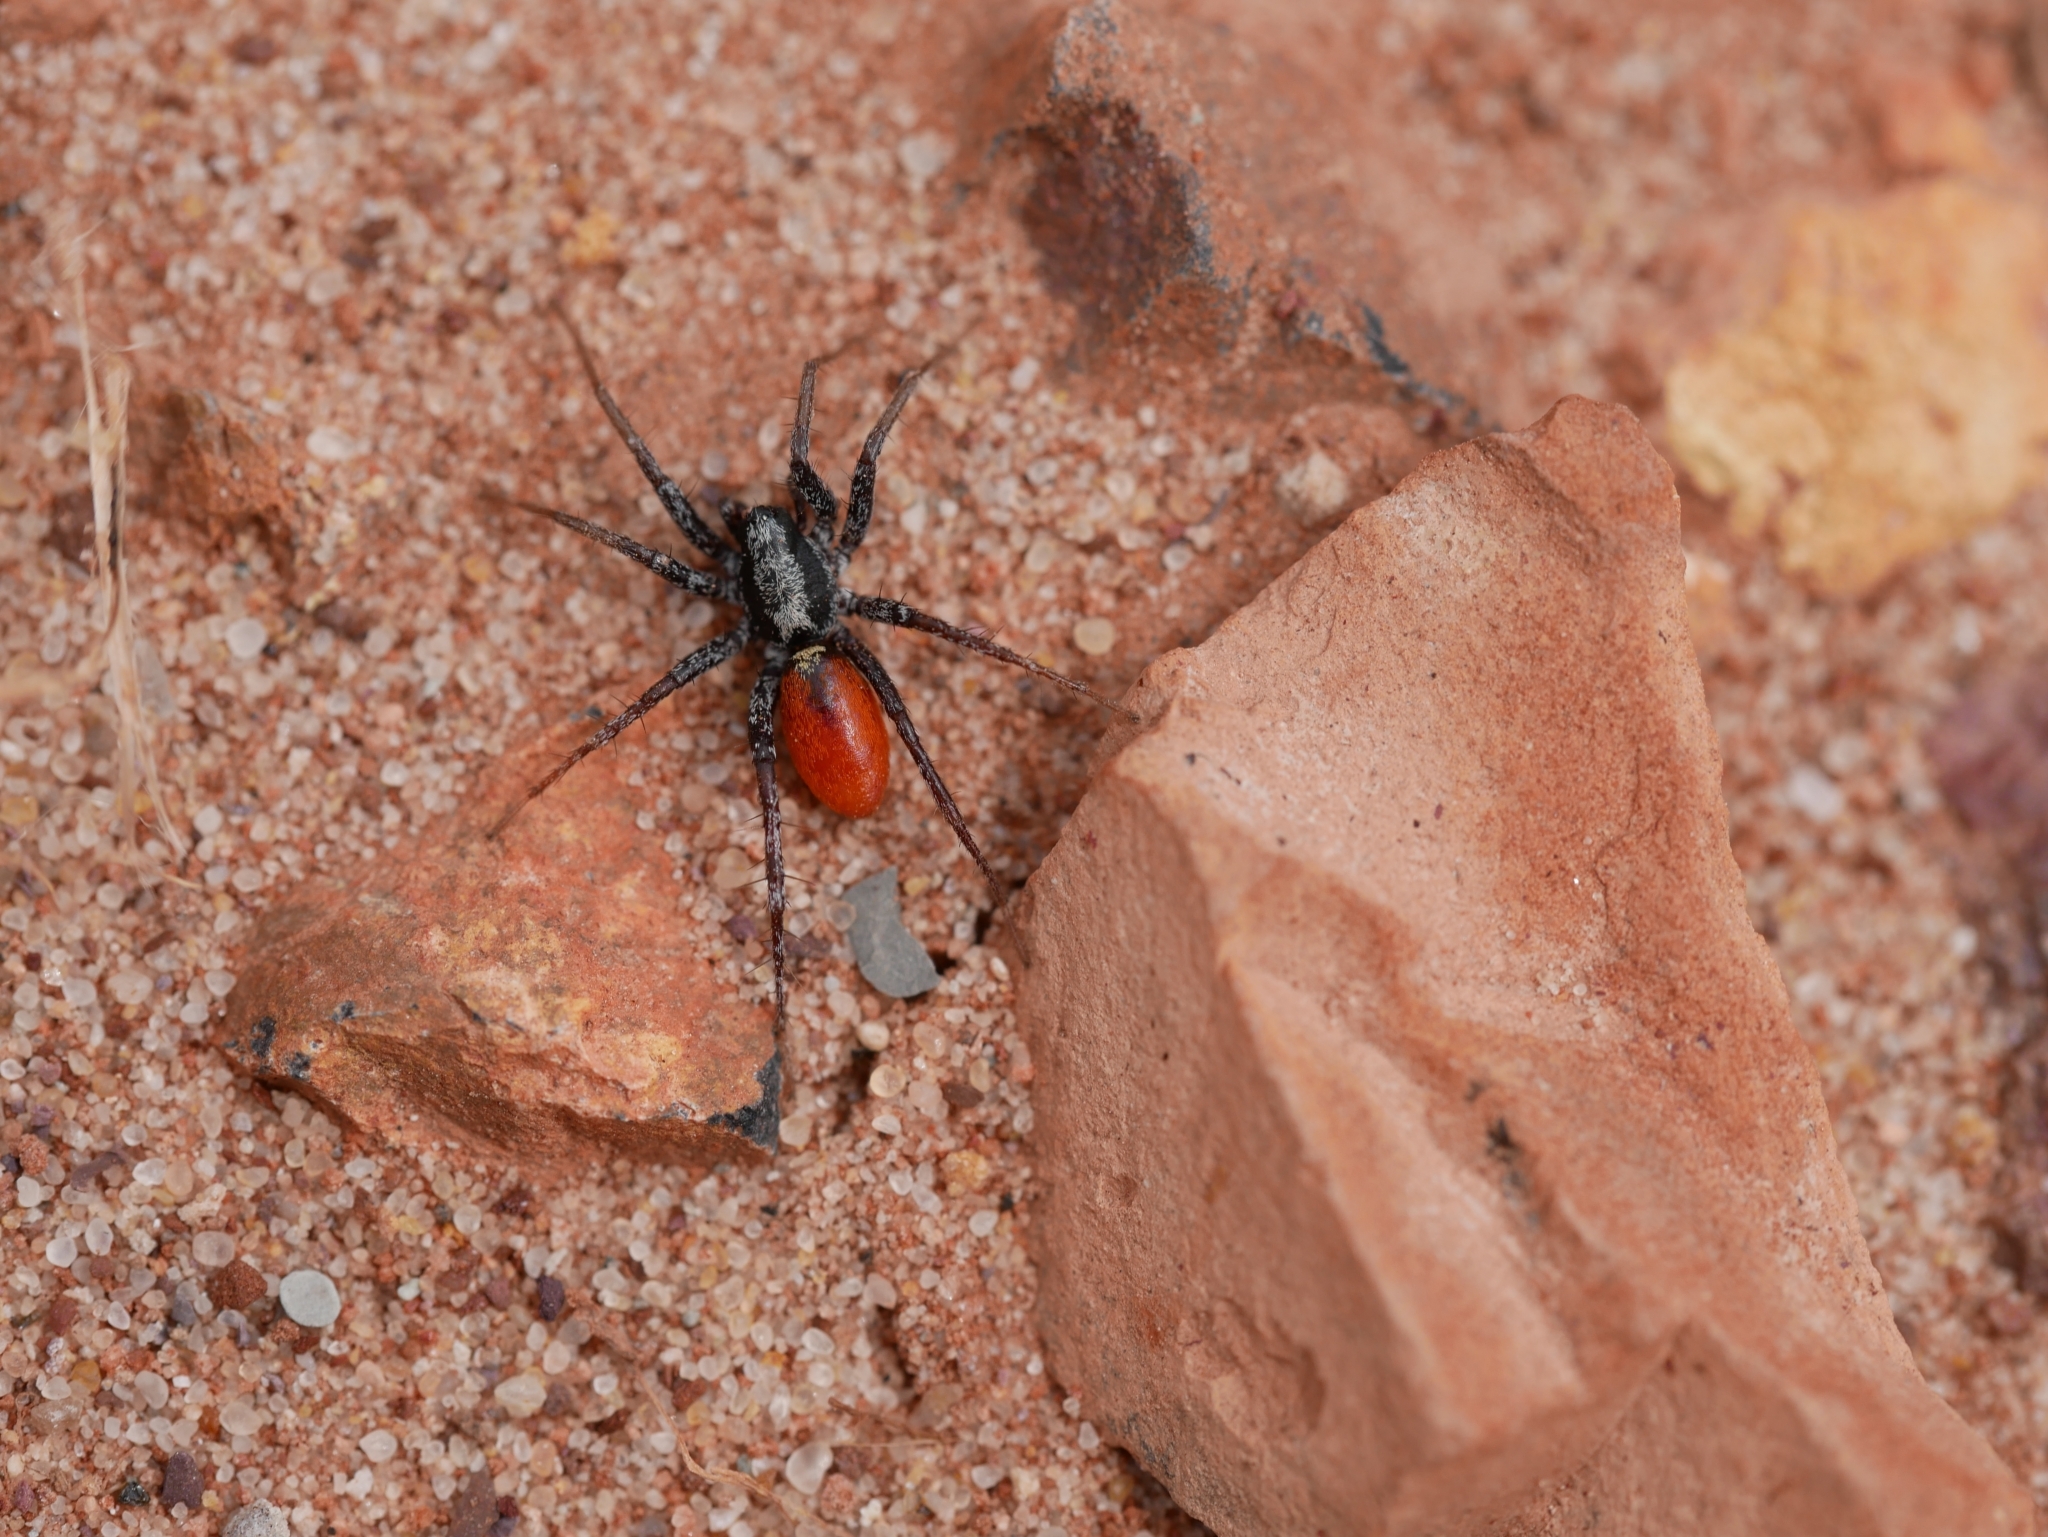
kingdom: Animalia
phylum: Arthropoda
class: Arachnida
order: Araneae
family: Corinnidae
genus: Castianeira
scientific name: Castianeira occidens
